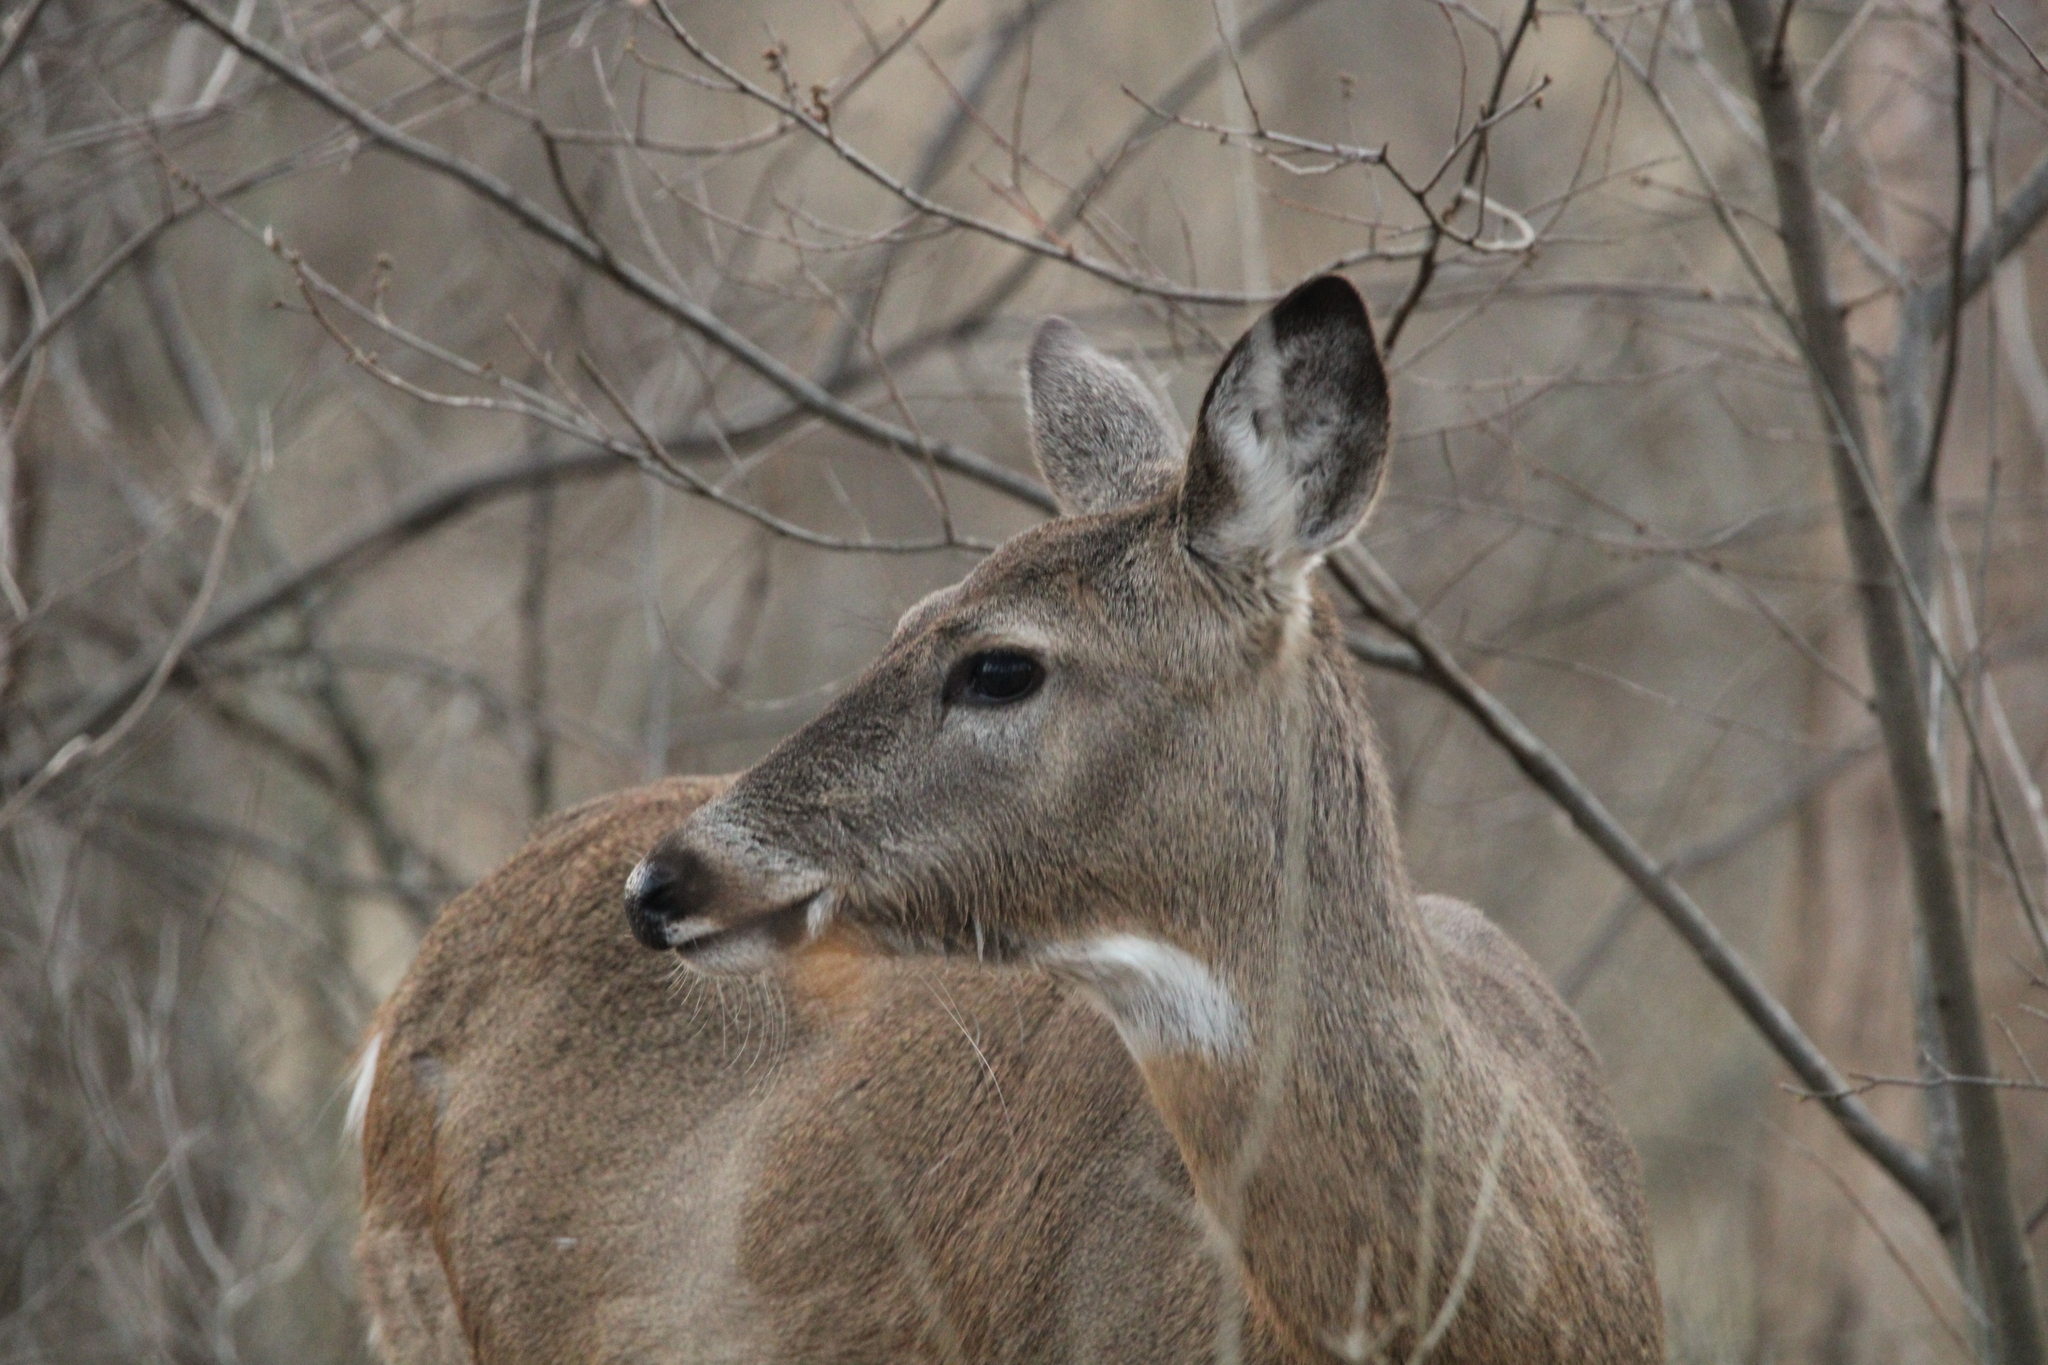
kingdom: Animalia
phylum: Chordata
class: Mammalia
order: Artiodactyla
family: Cervidae
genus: Odocoileus
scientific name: Odocoileus virginianus
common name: White-tailed deer
